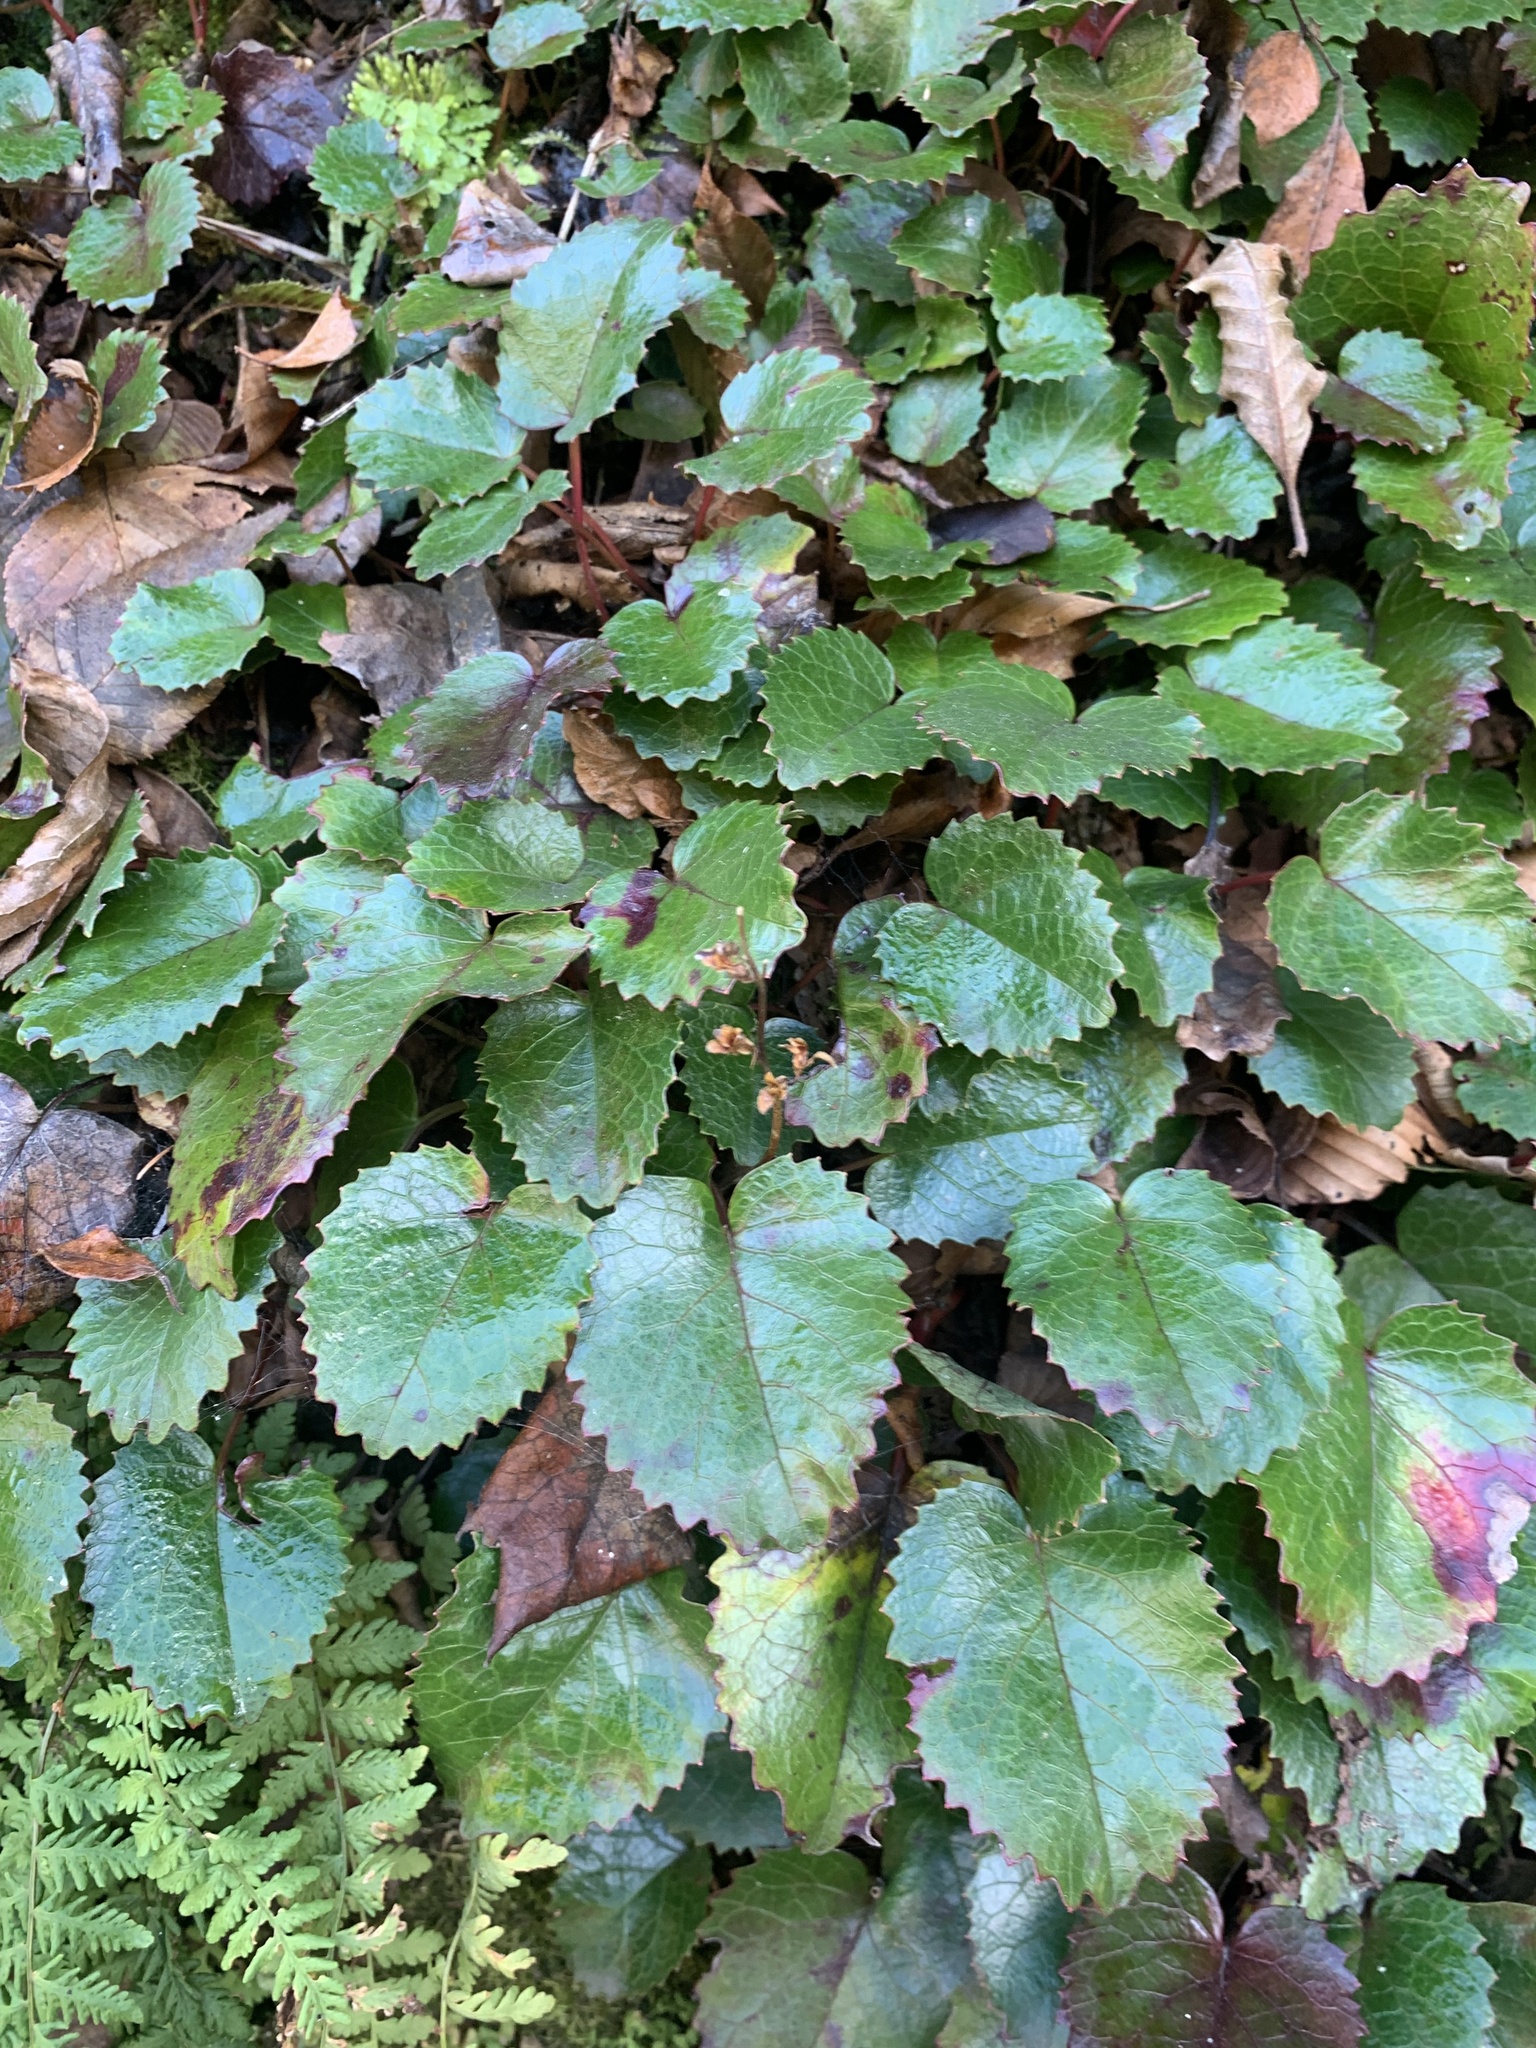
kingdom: Plantae
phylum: Tracheophyta
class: Magnoliopsida
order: Ericales
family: Diapensiaceae
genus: Schizocodon
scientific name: Schizocodon ilicifolius
